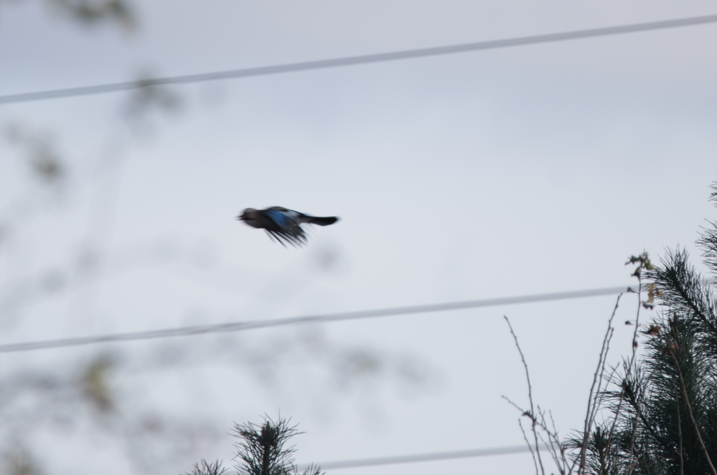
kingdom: Animalia
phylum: Chordata
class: Aves
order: Passeriformes
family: Corvidae
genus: Garrulus
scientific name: Garrulus glandarius
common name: Eurasian jay
